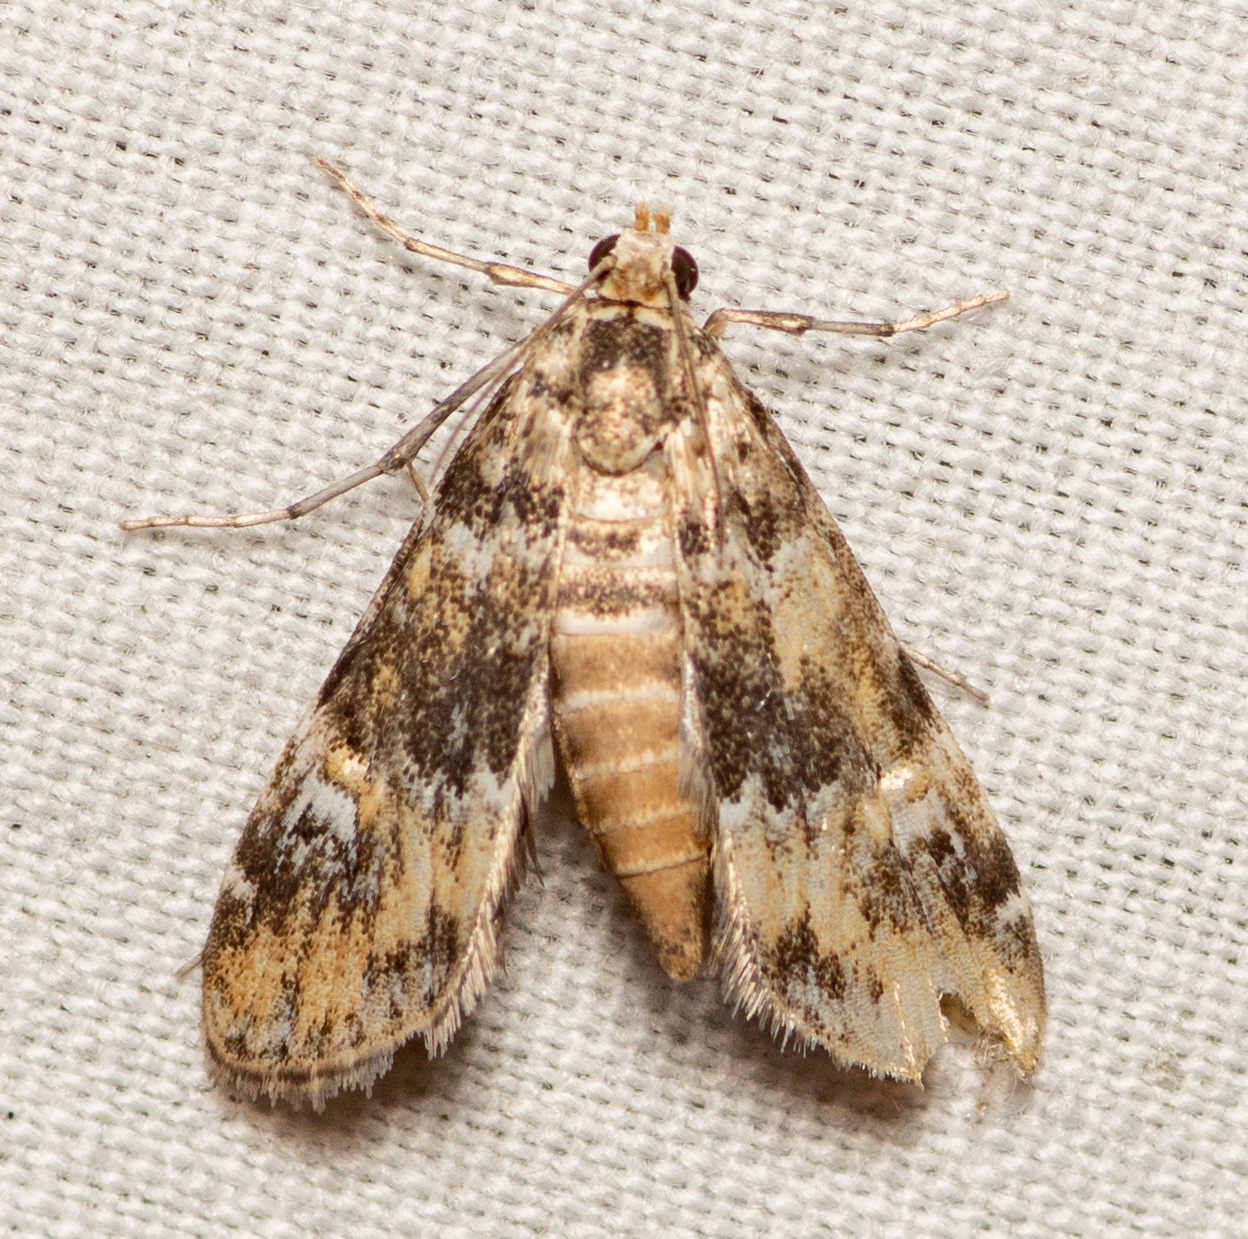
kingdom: Animalia
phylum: Arthropoda
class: Insecta
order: Lepidoptera
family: Crambidae
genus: Elophila
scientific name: Elophila obliteralis
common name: Waterlily leafcutter moth
